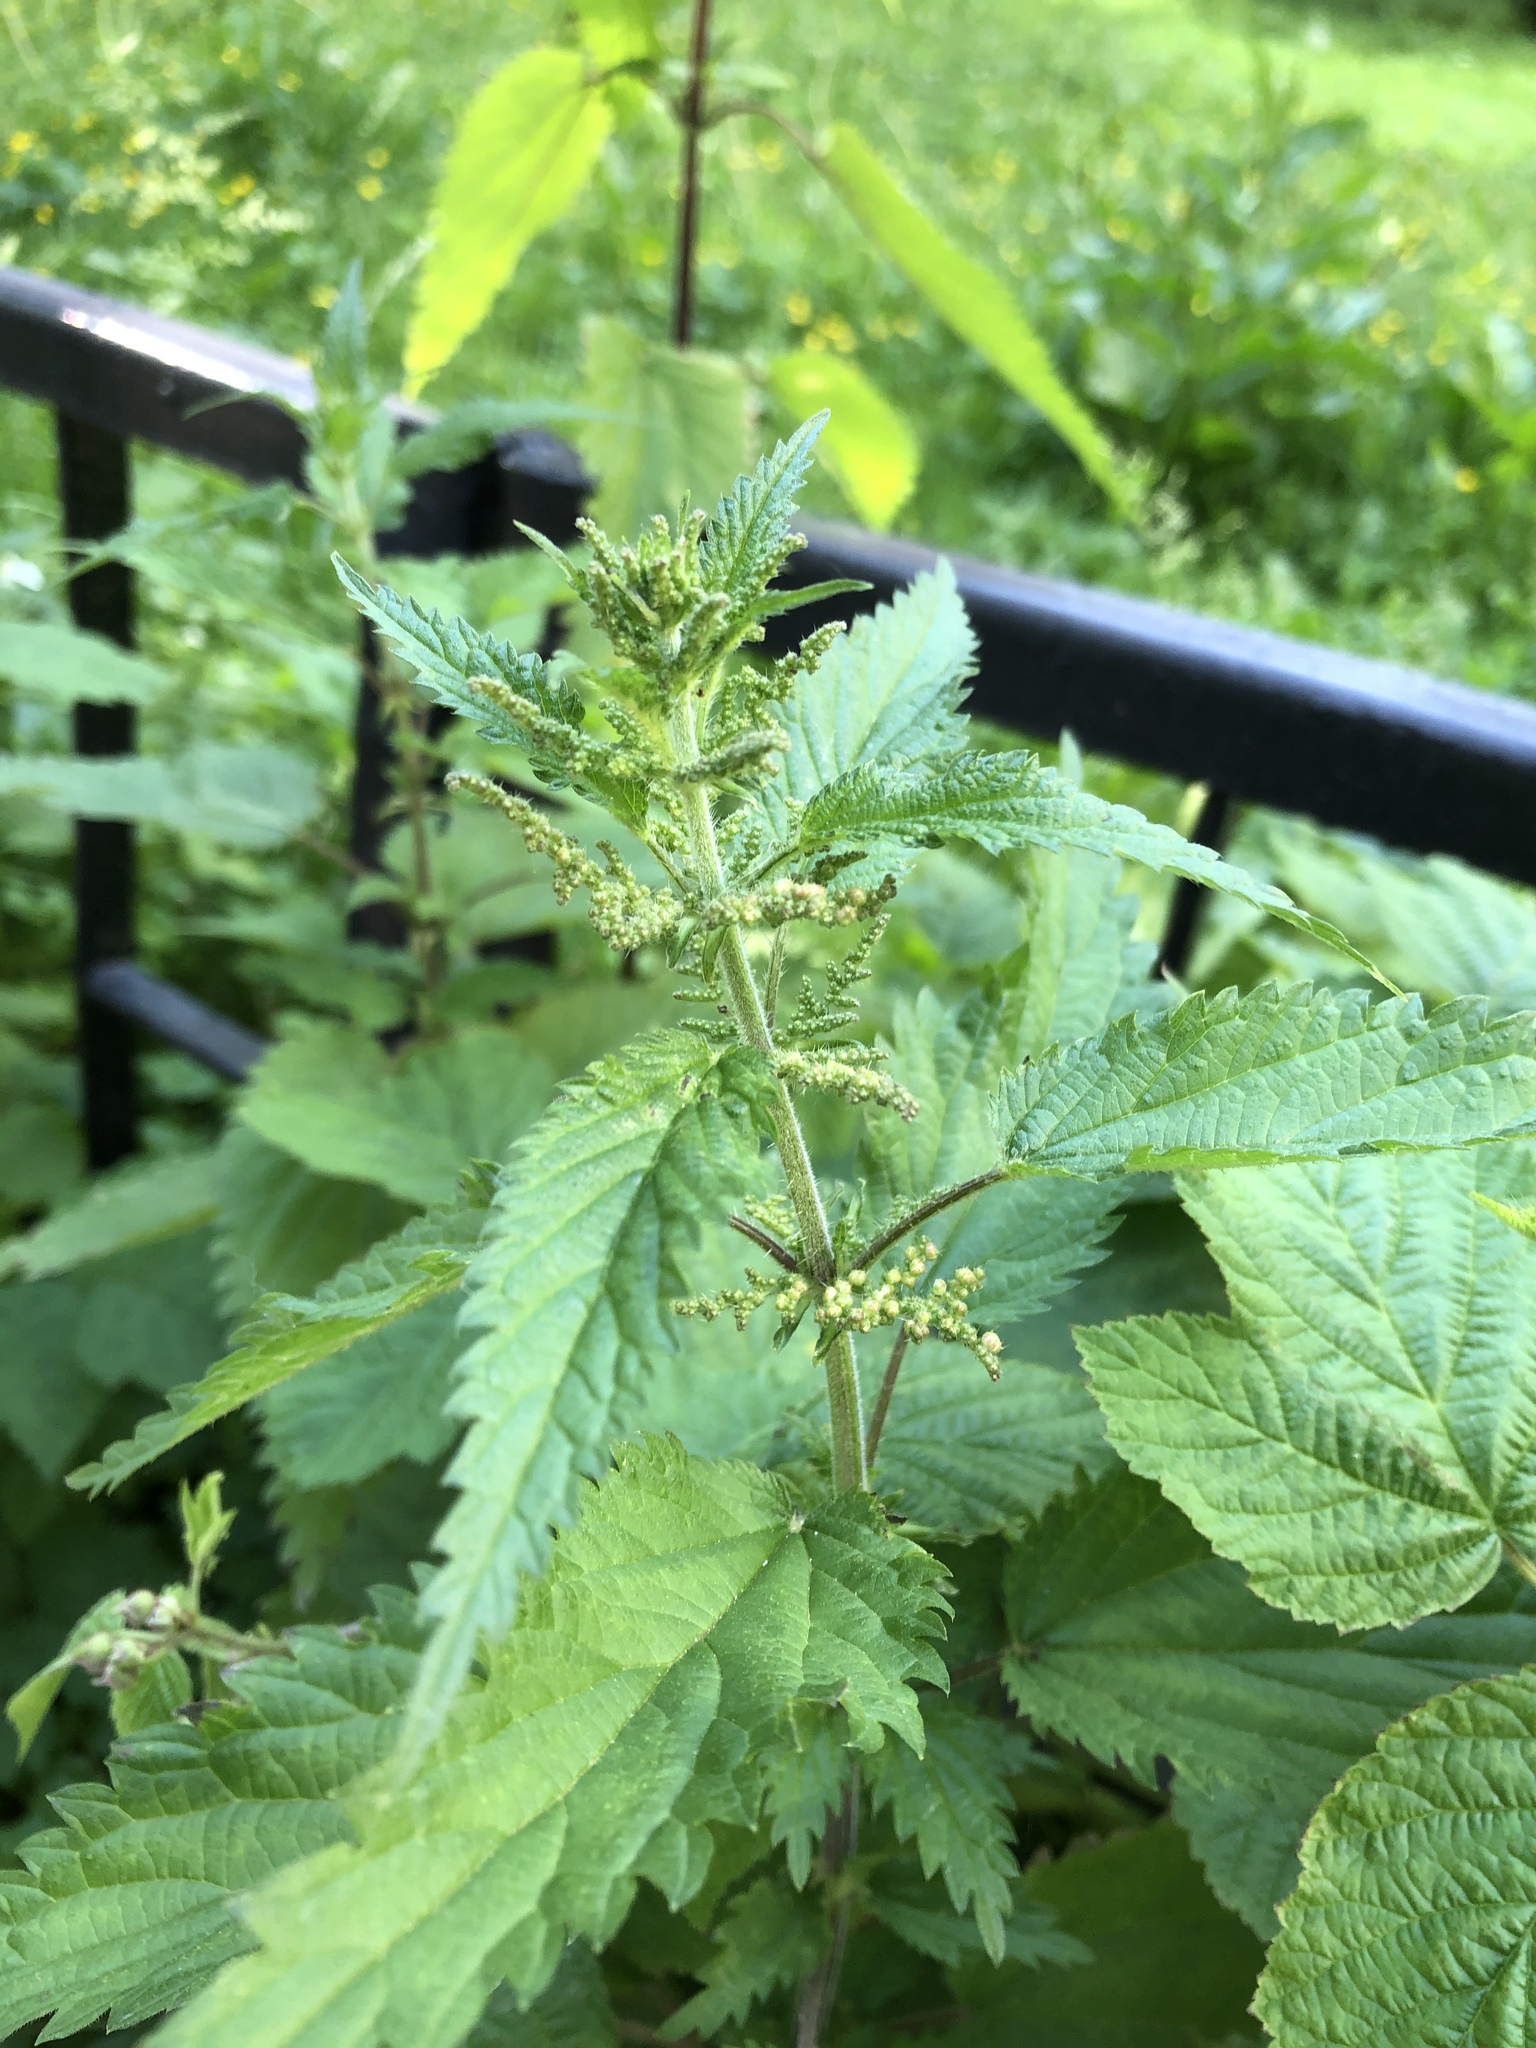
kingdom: Plantae
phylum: Tracheophyta
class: Magnoliopsida
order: Rosales
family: Urticaceae
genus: Urtica
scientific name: Urtica dioica
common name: Common nettle
